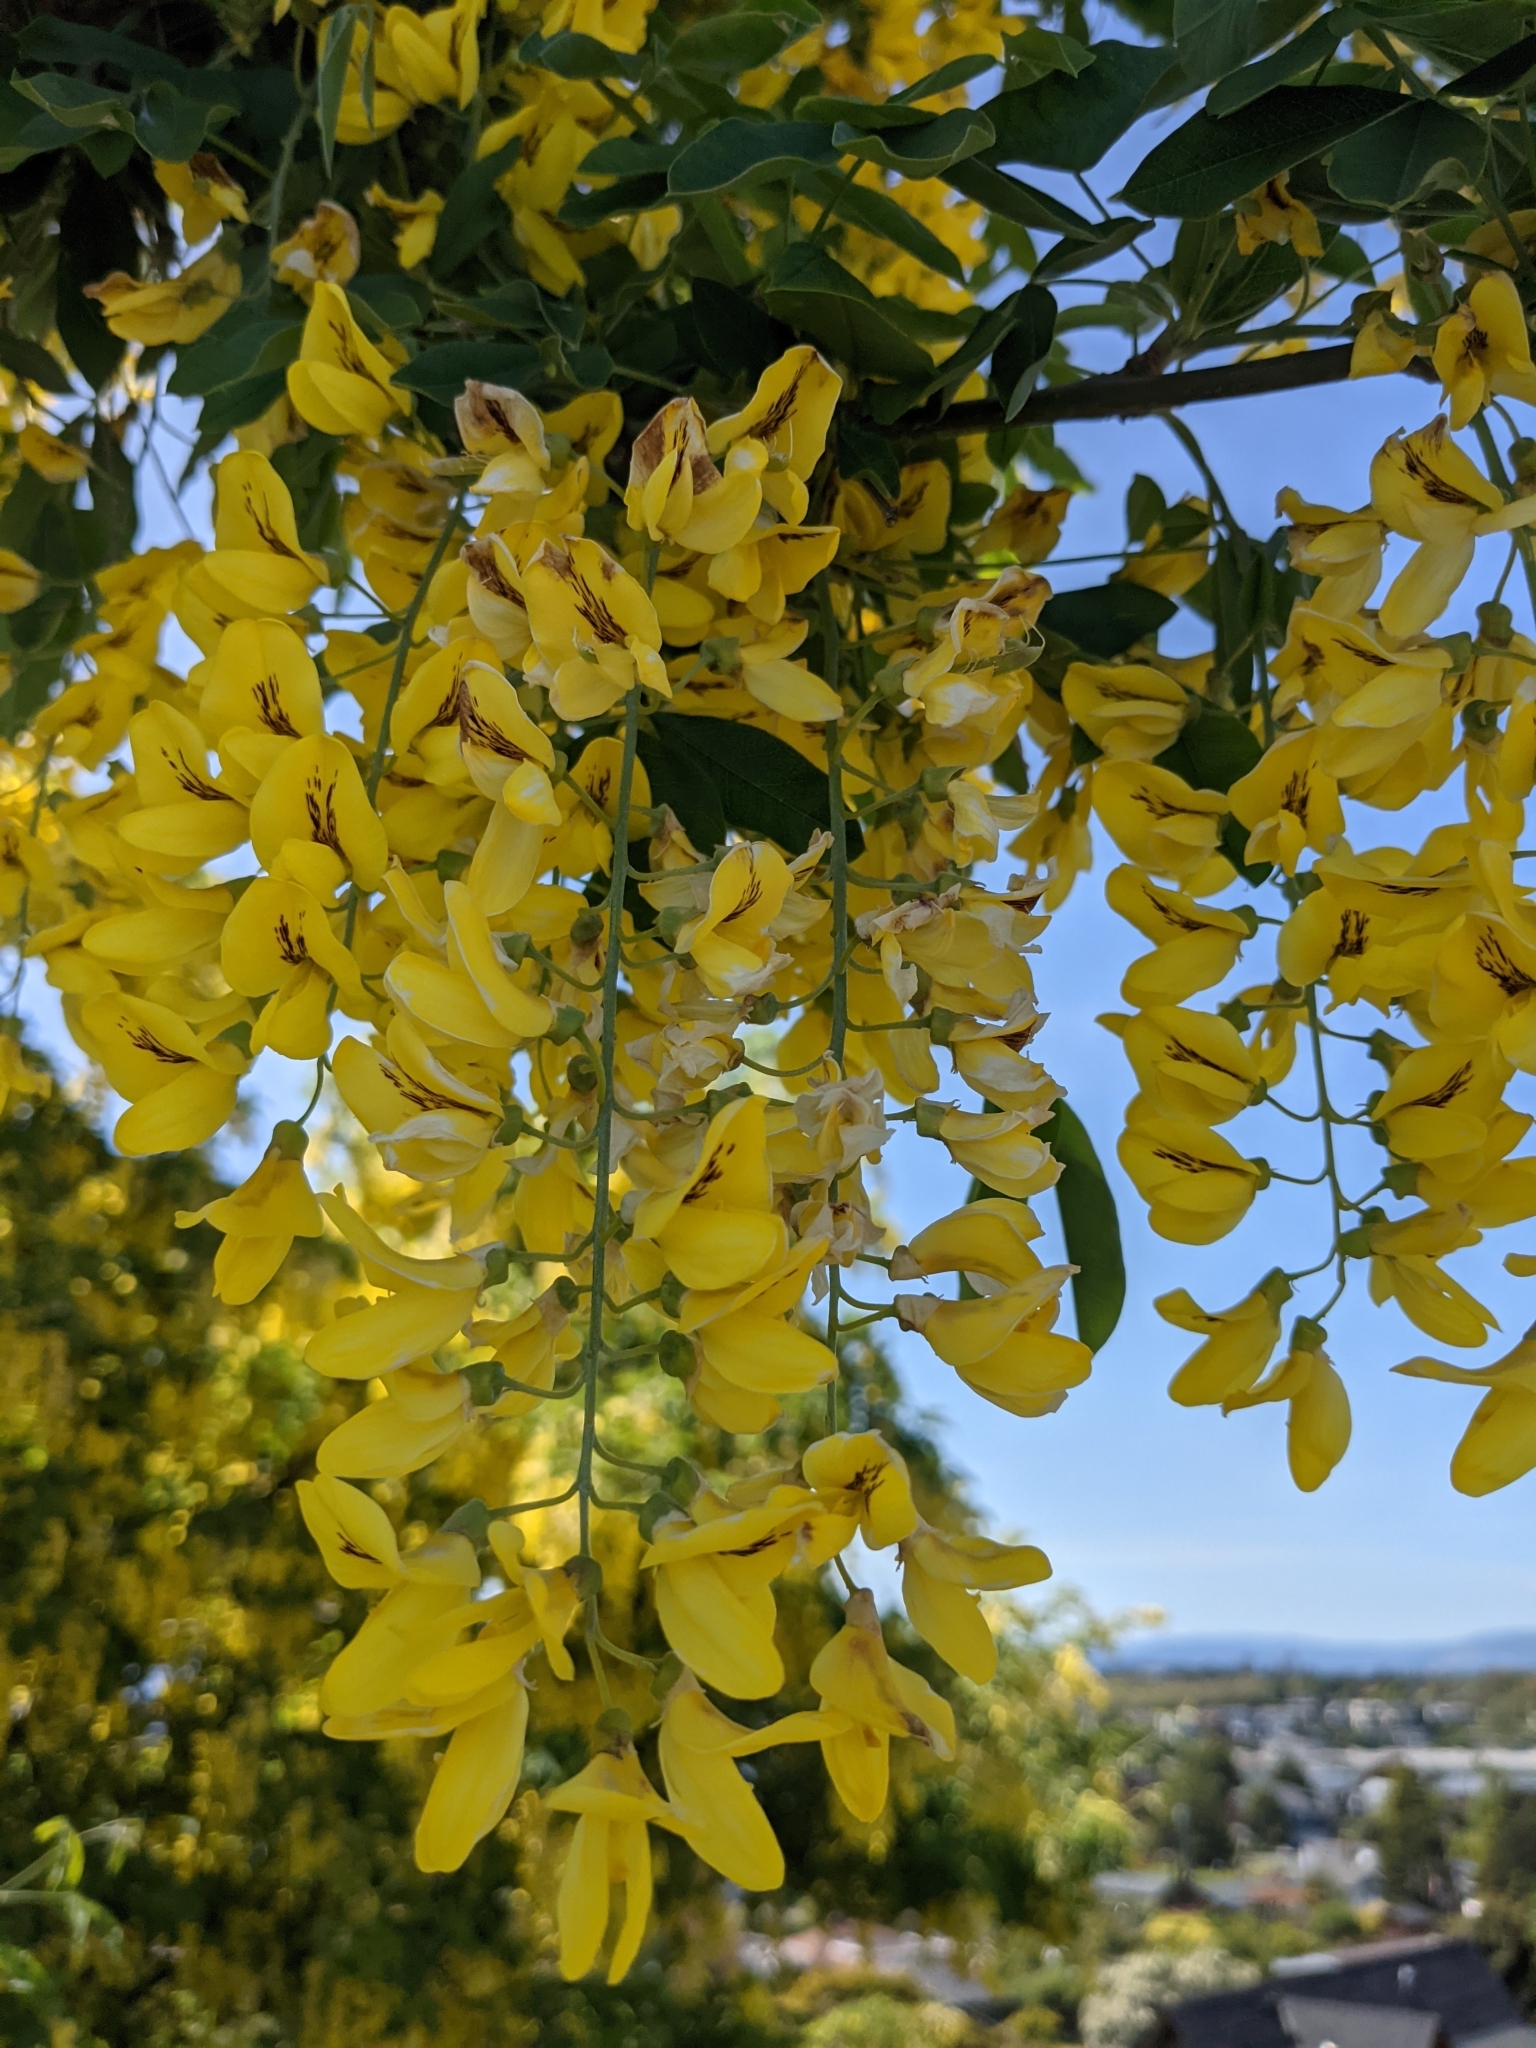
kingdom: Plantae
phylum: Tracheophyta
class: Magnoliopsida
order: Fabales
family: Fabaceae
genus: Laburnum
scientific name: Laburnum anagyroides
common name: Laburnum
